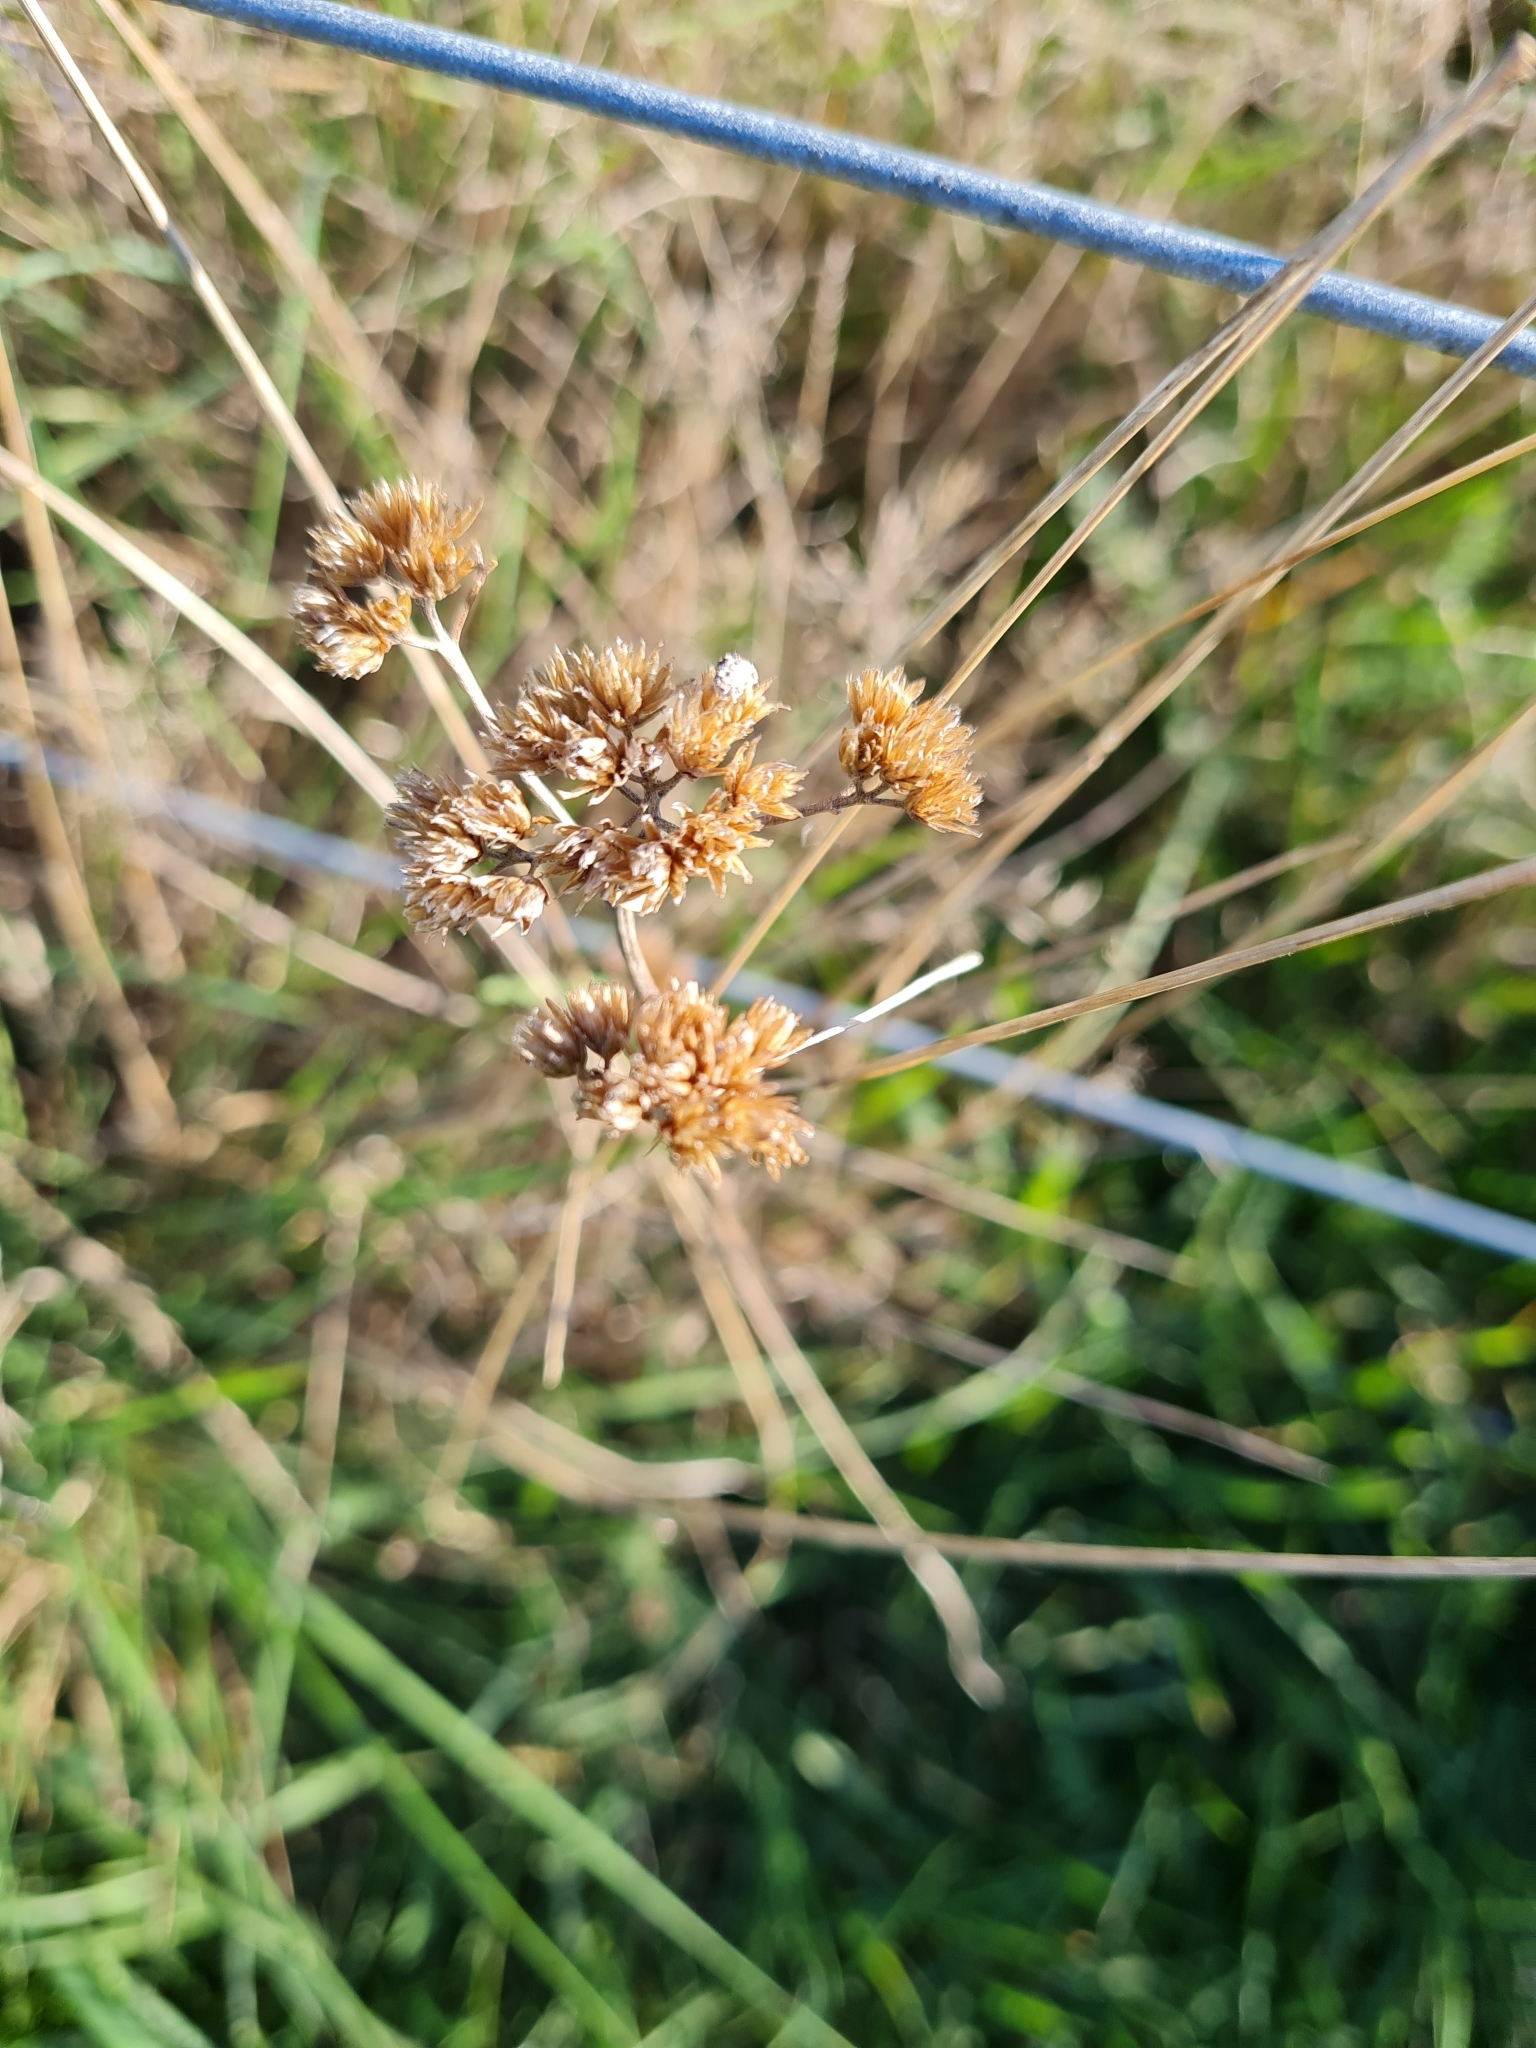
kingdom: Plantae
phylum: Tracheophyta
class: Magnoliopsida
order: Asterales
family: Asteraceae
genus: Achillea
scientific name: Achillea millefolium
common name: Yarrow
